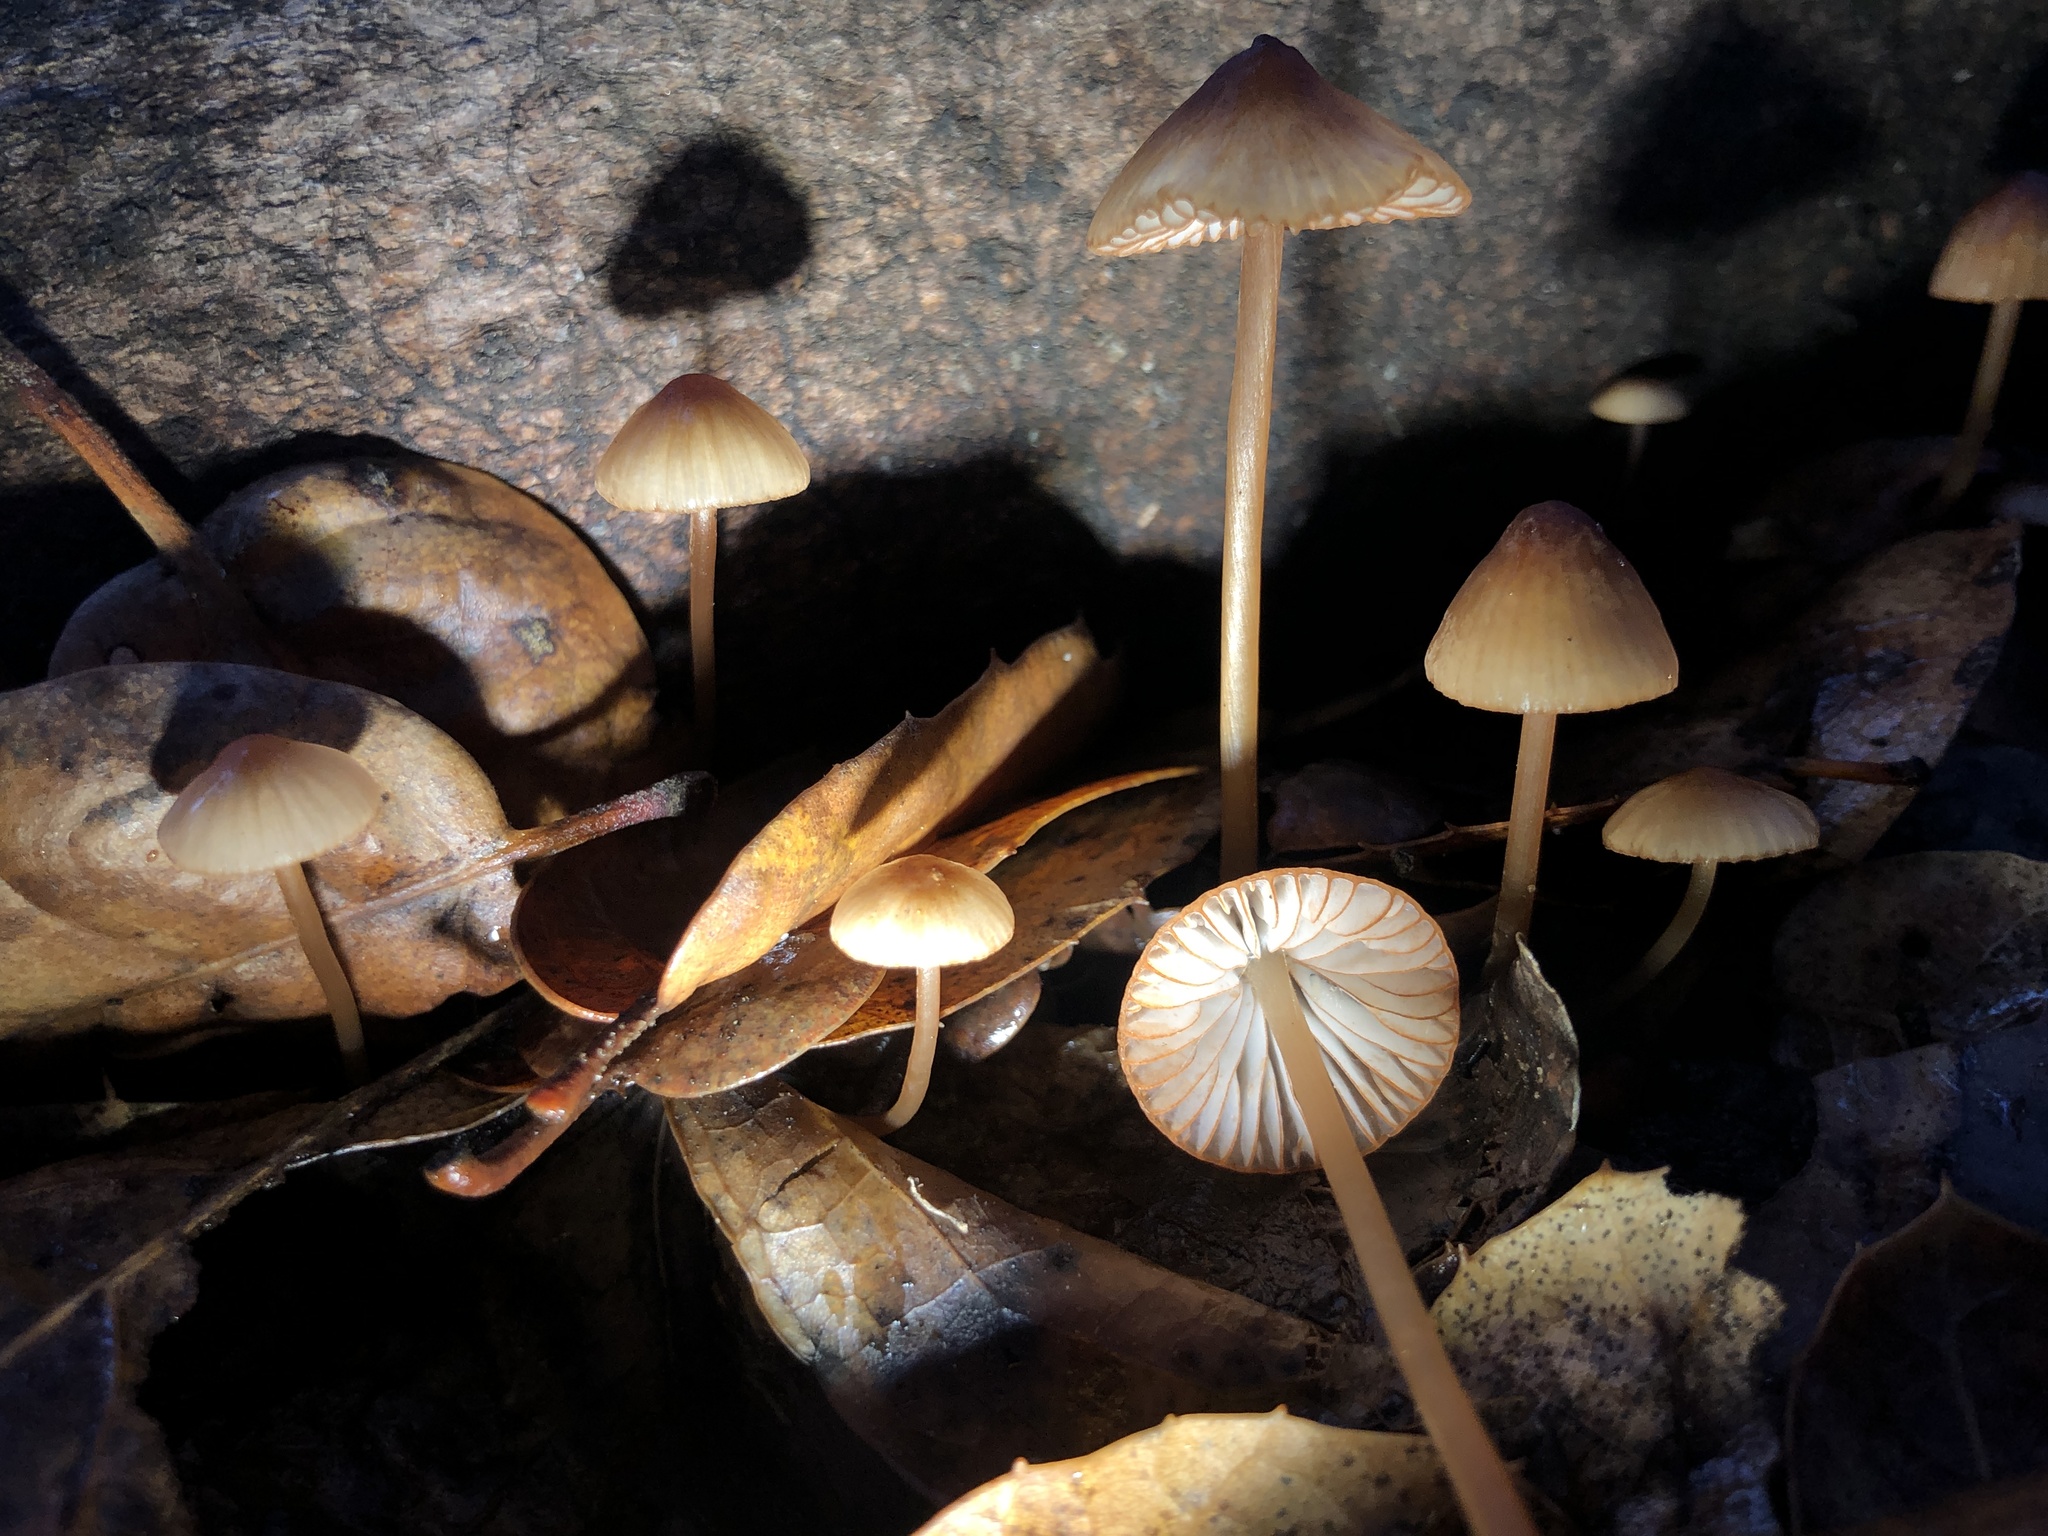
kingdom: Fungi
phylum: Basidiomycota
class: Agaricomycetes
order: Agaricales
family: Mycenaceae
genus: Mycena
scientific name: Mycena
